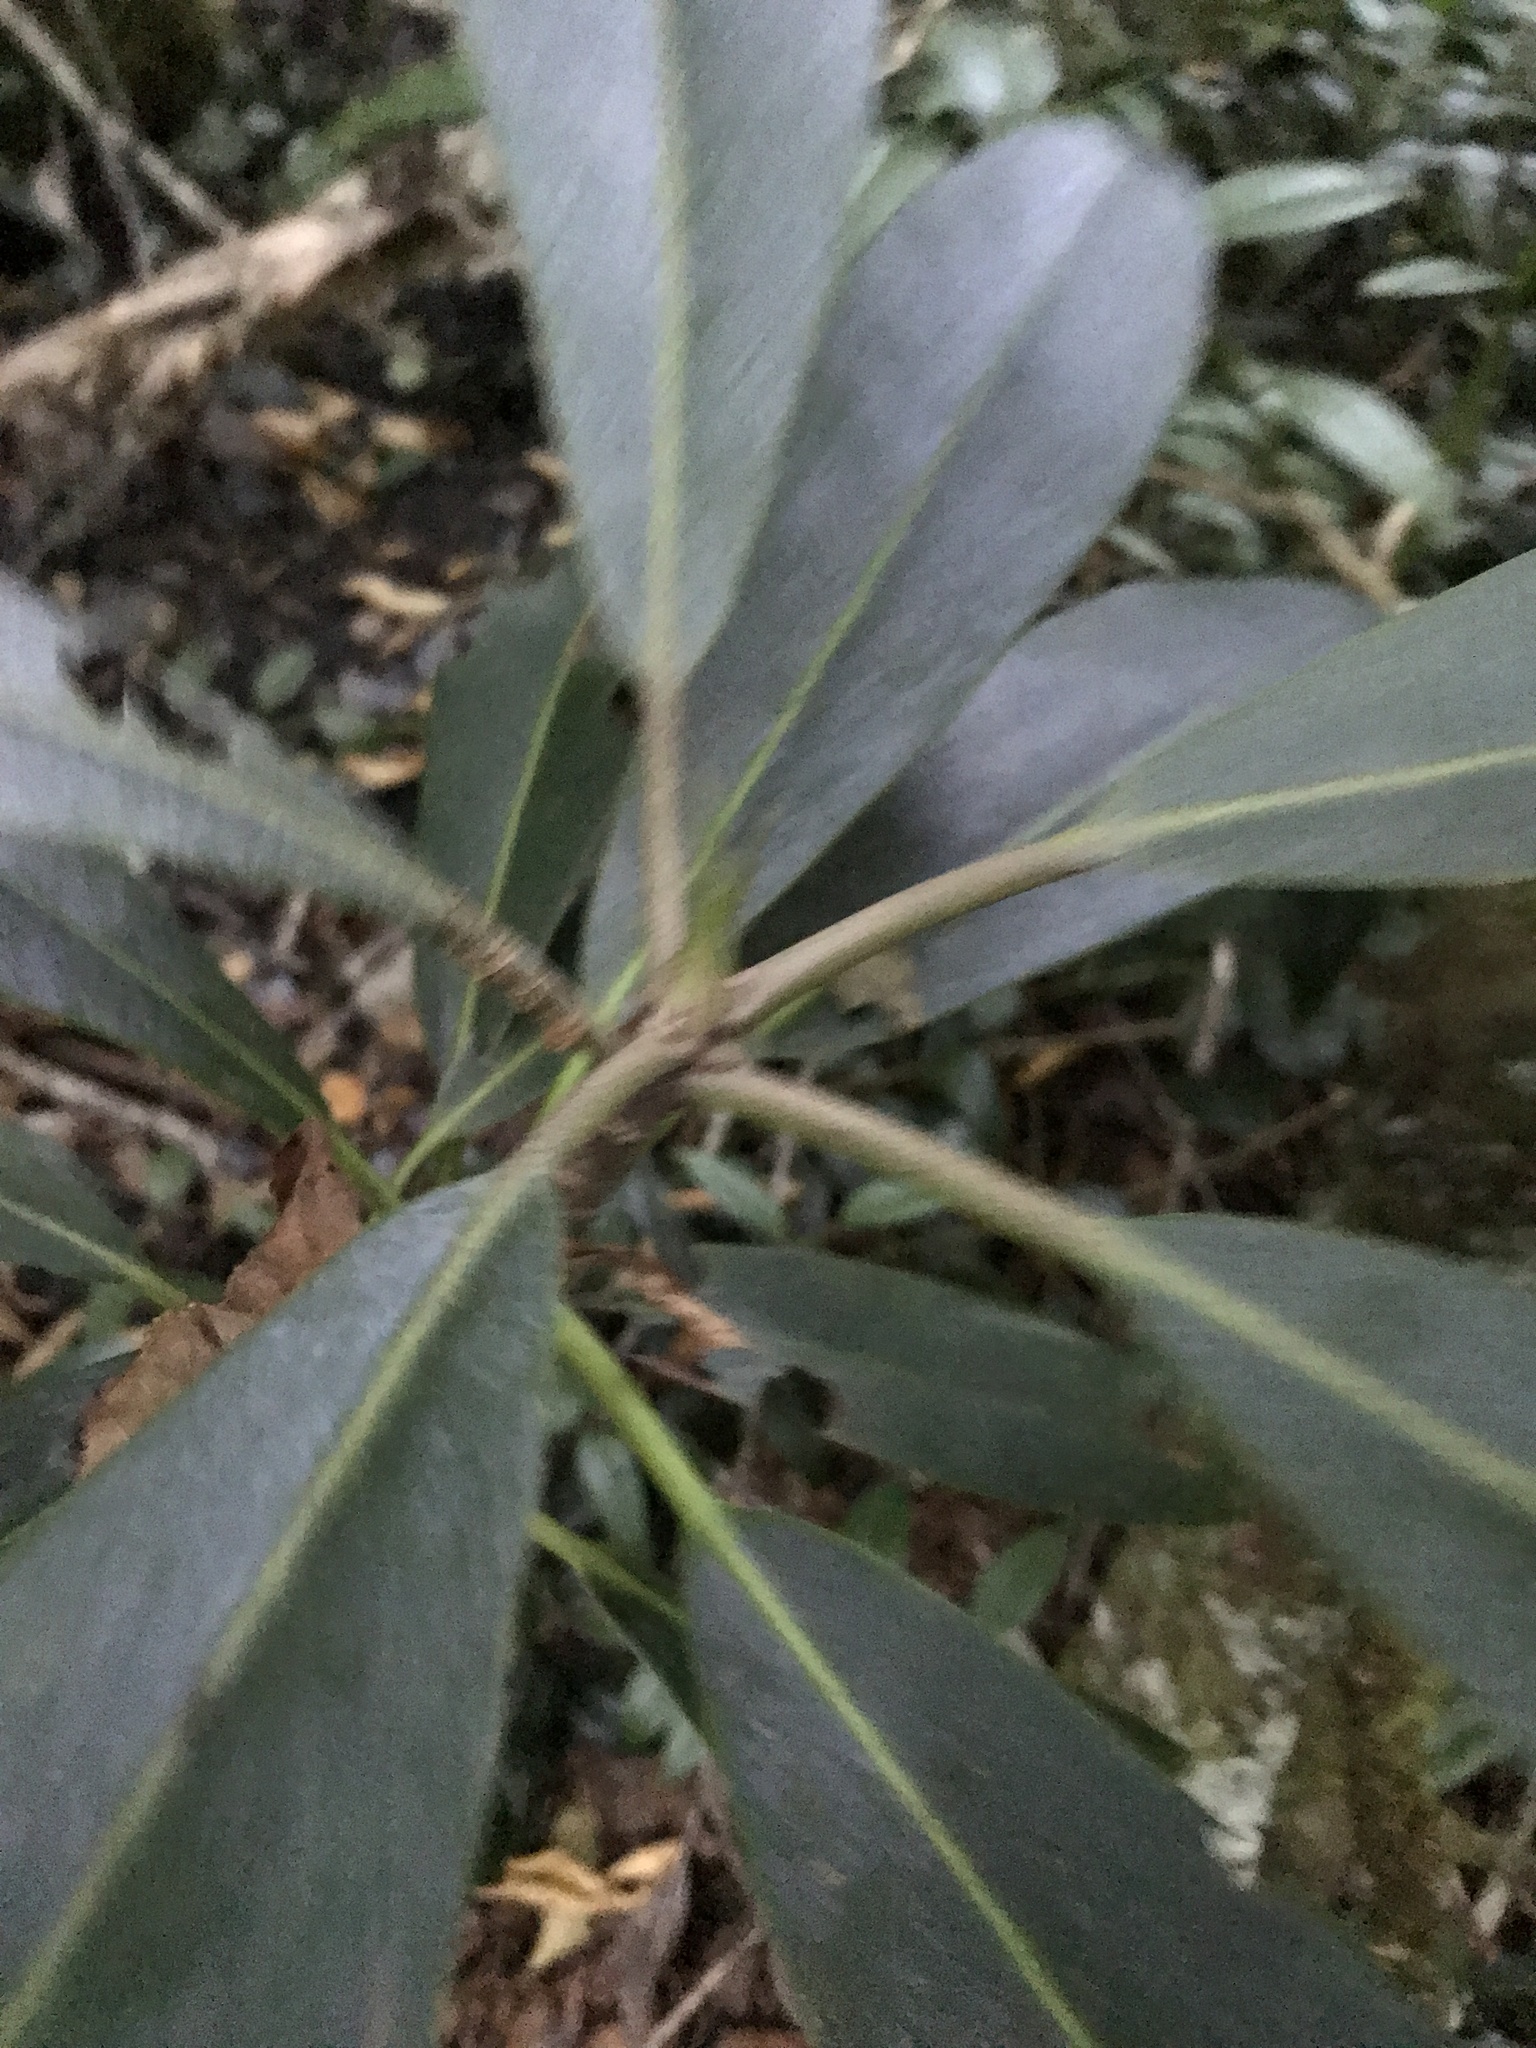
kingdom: Plantae
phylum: Tracheophyta
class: Magnoliopsida
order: Ericales
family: Ericaceae
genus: Rhododendron
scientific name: Rhododendron maximum
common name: Great rhododendron
